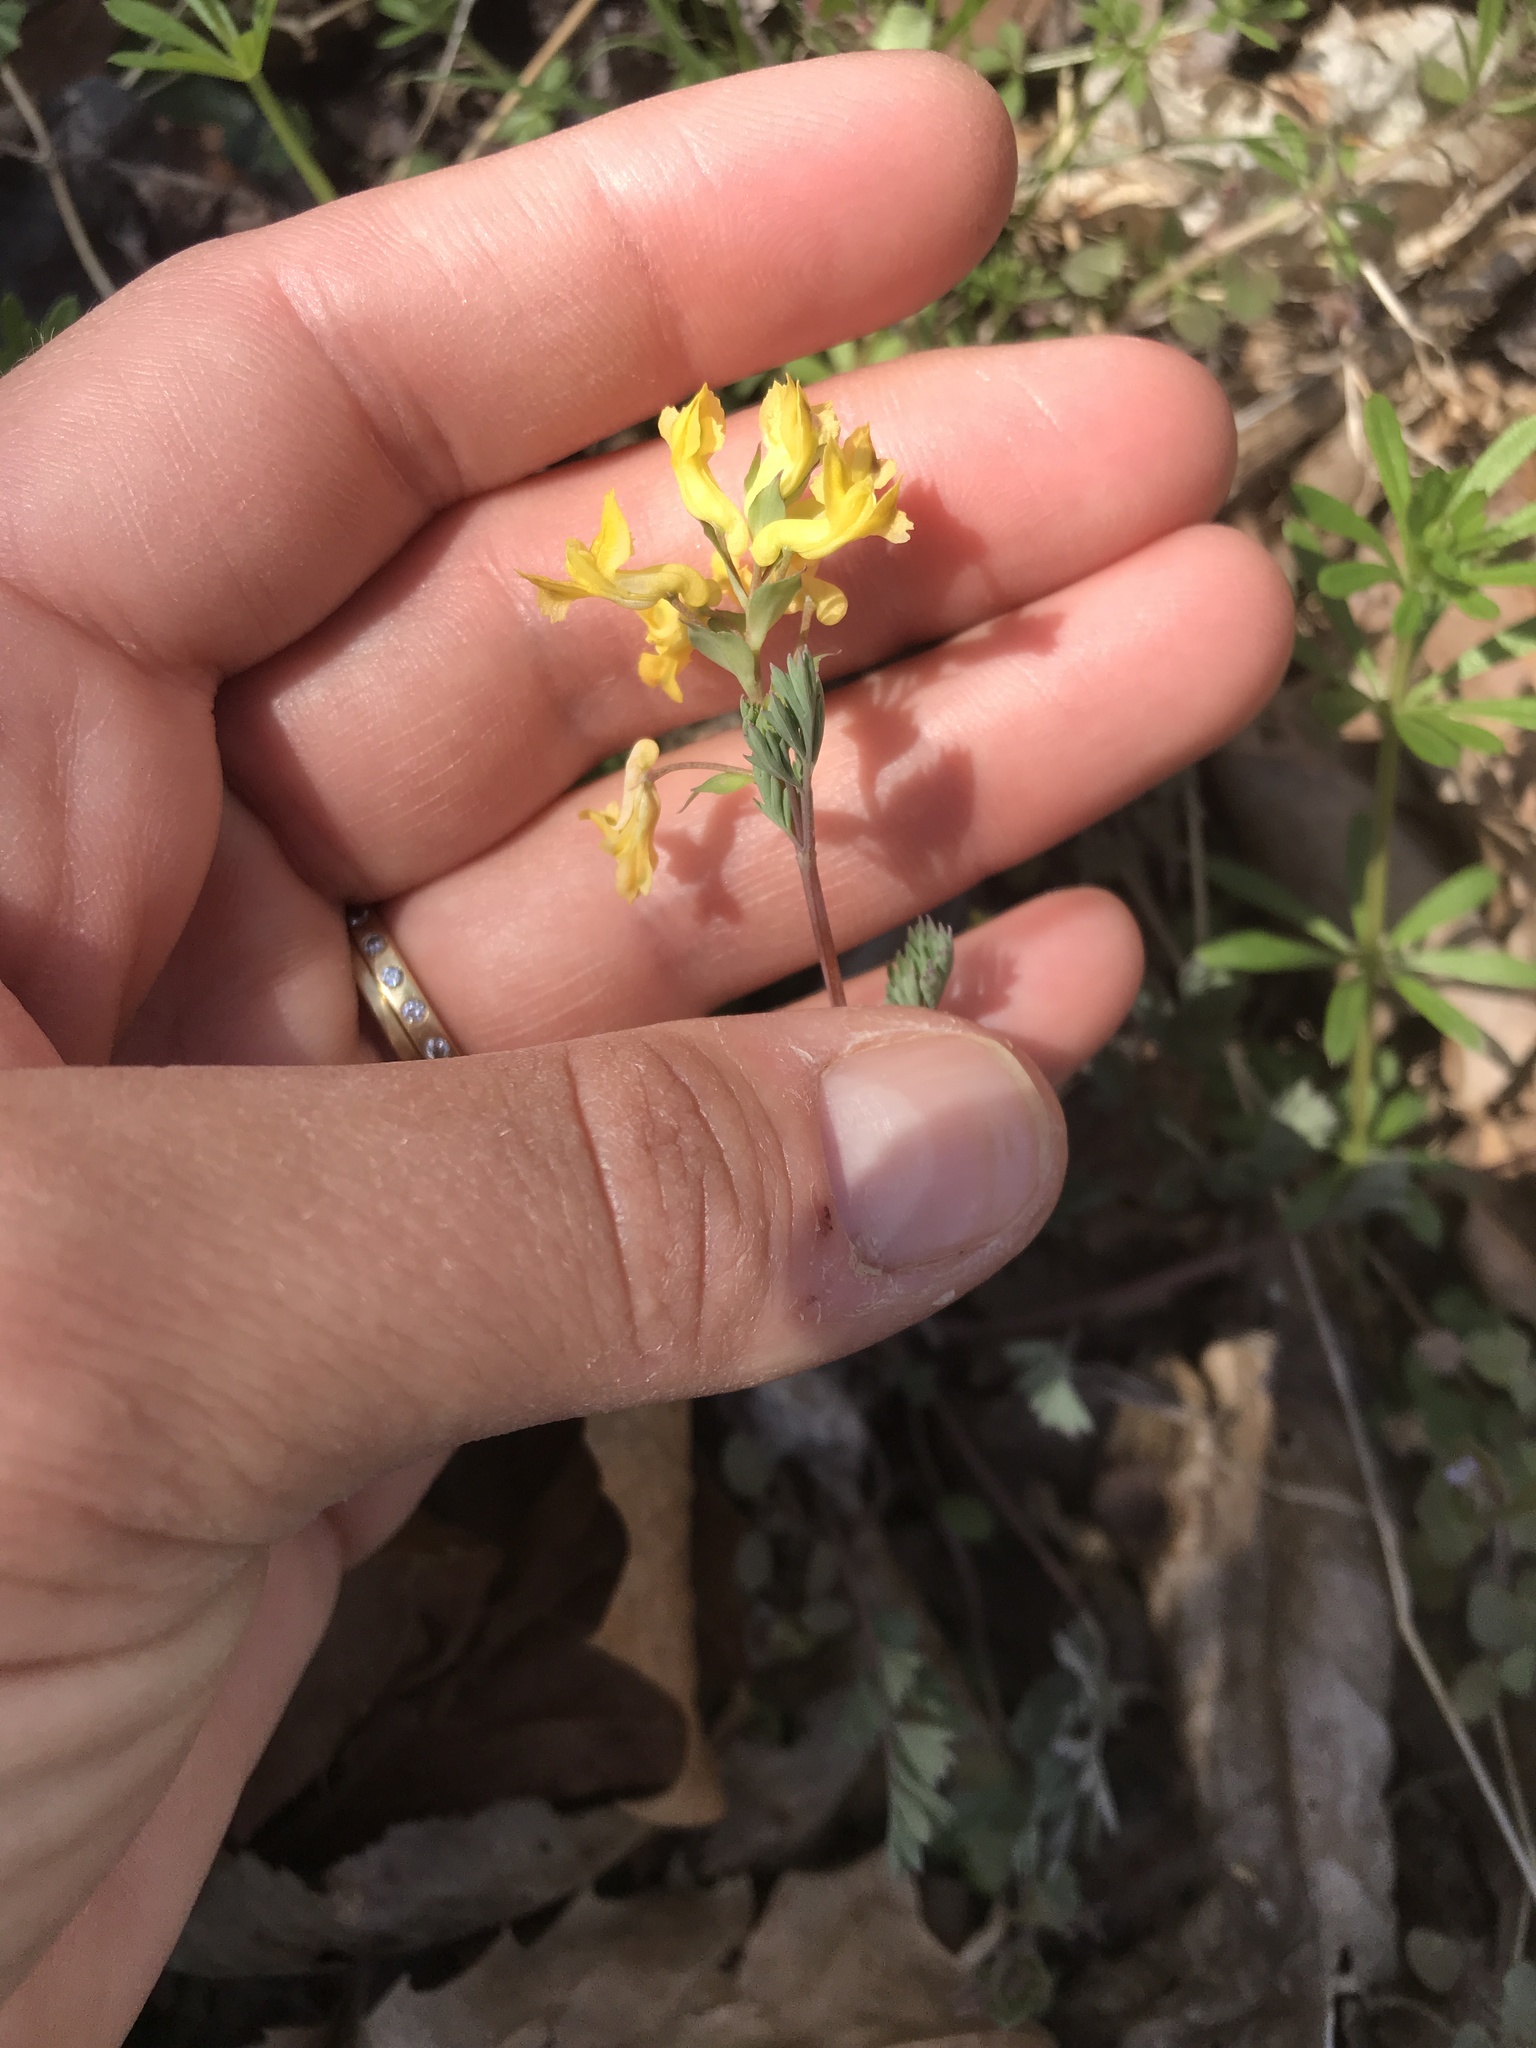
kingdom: Plantae
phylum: Tracheophyta
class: Magnoliopsida
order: Ranunculales
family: Papaveraceae
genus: Corydalis
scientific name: Corydalis flavula
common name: Yellow corydalis
